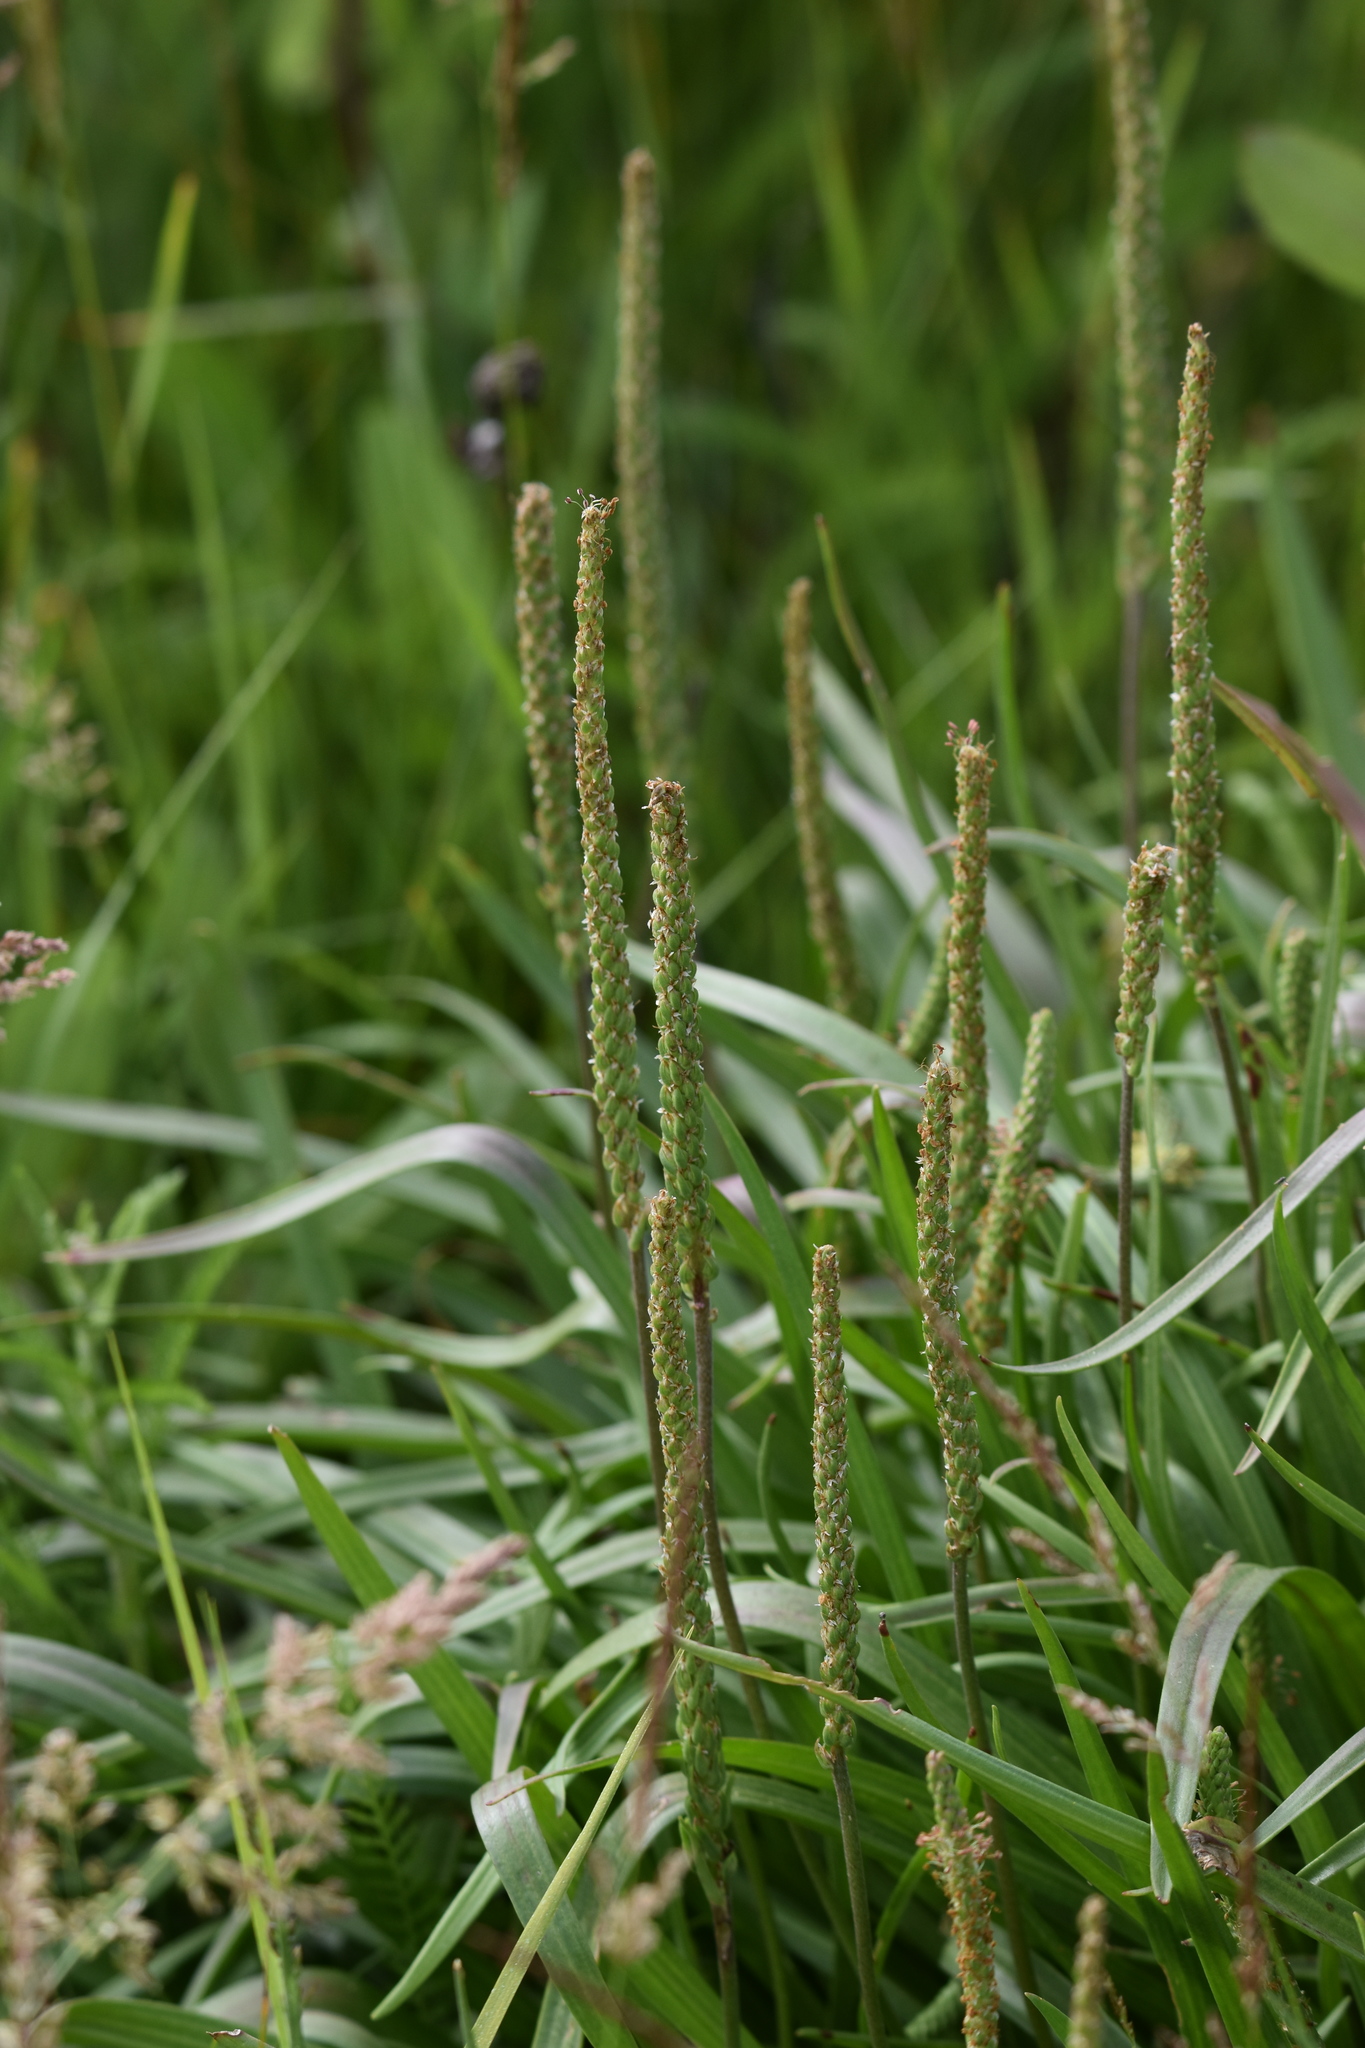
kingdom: Plantae
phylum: Tracheophyta
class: Magnoliopsida
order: Lamiales
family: Plantaginaceae
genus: Plantago
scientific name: Plantago maritima
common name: Sea plantain
